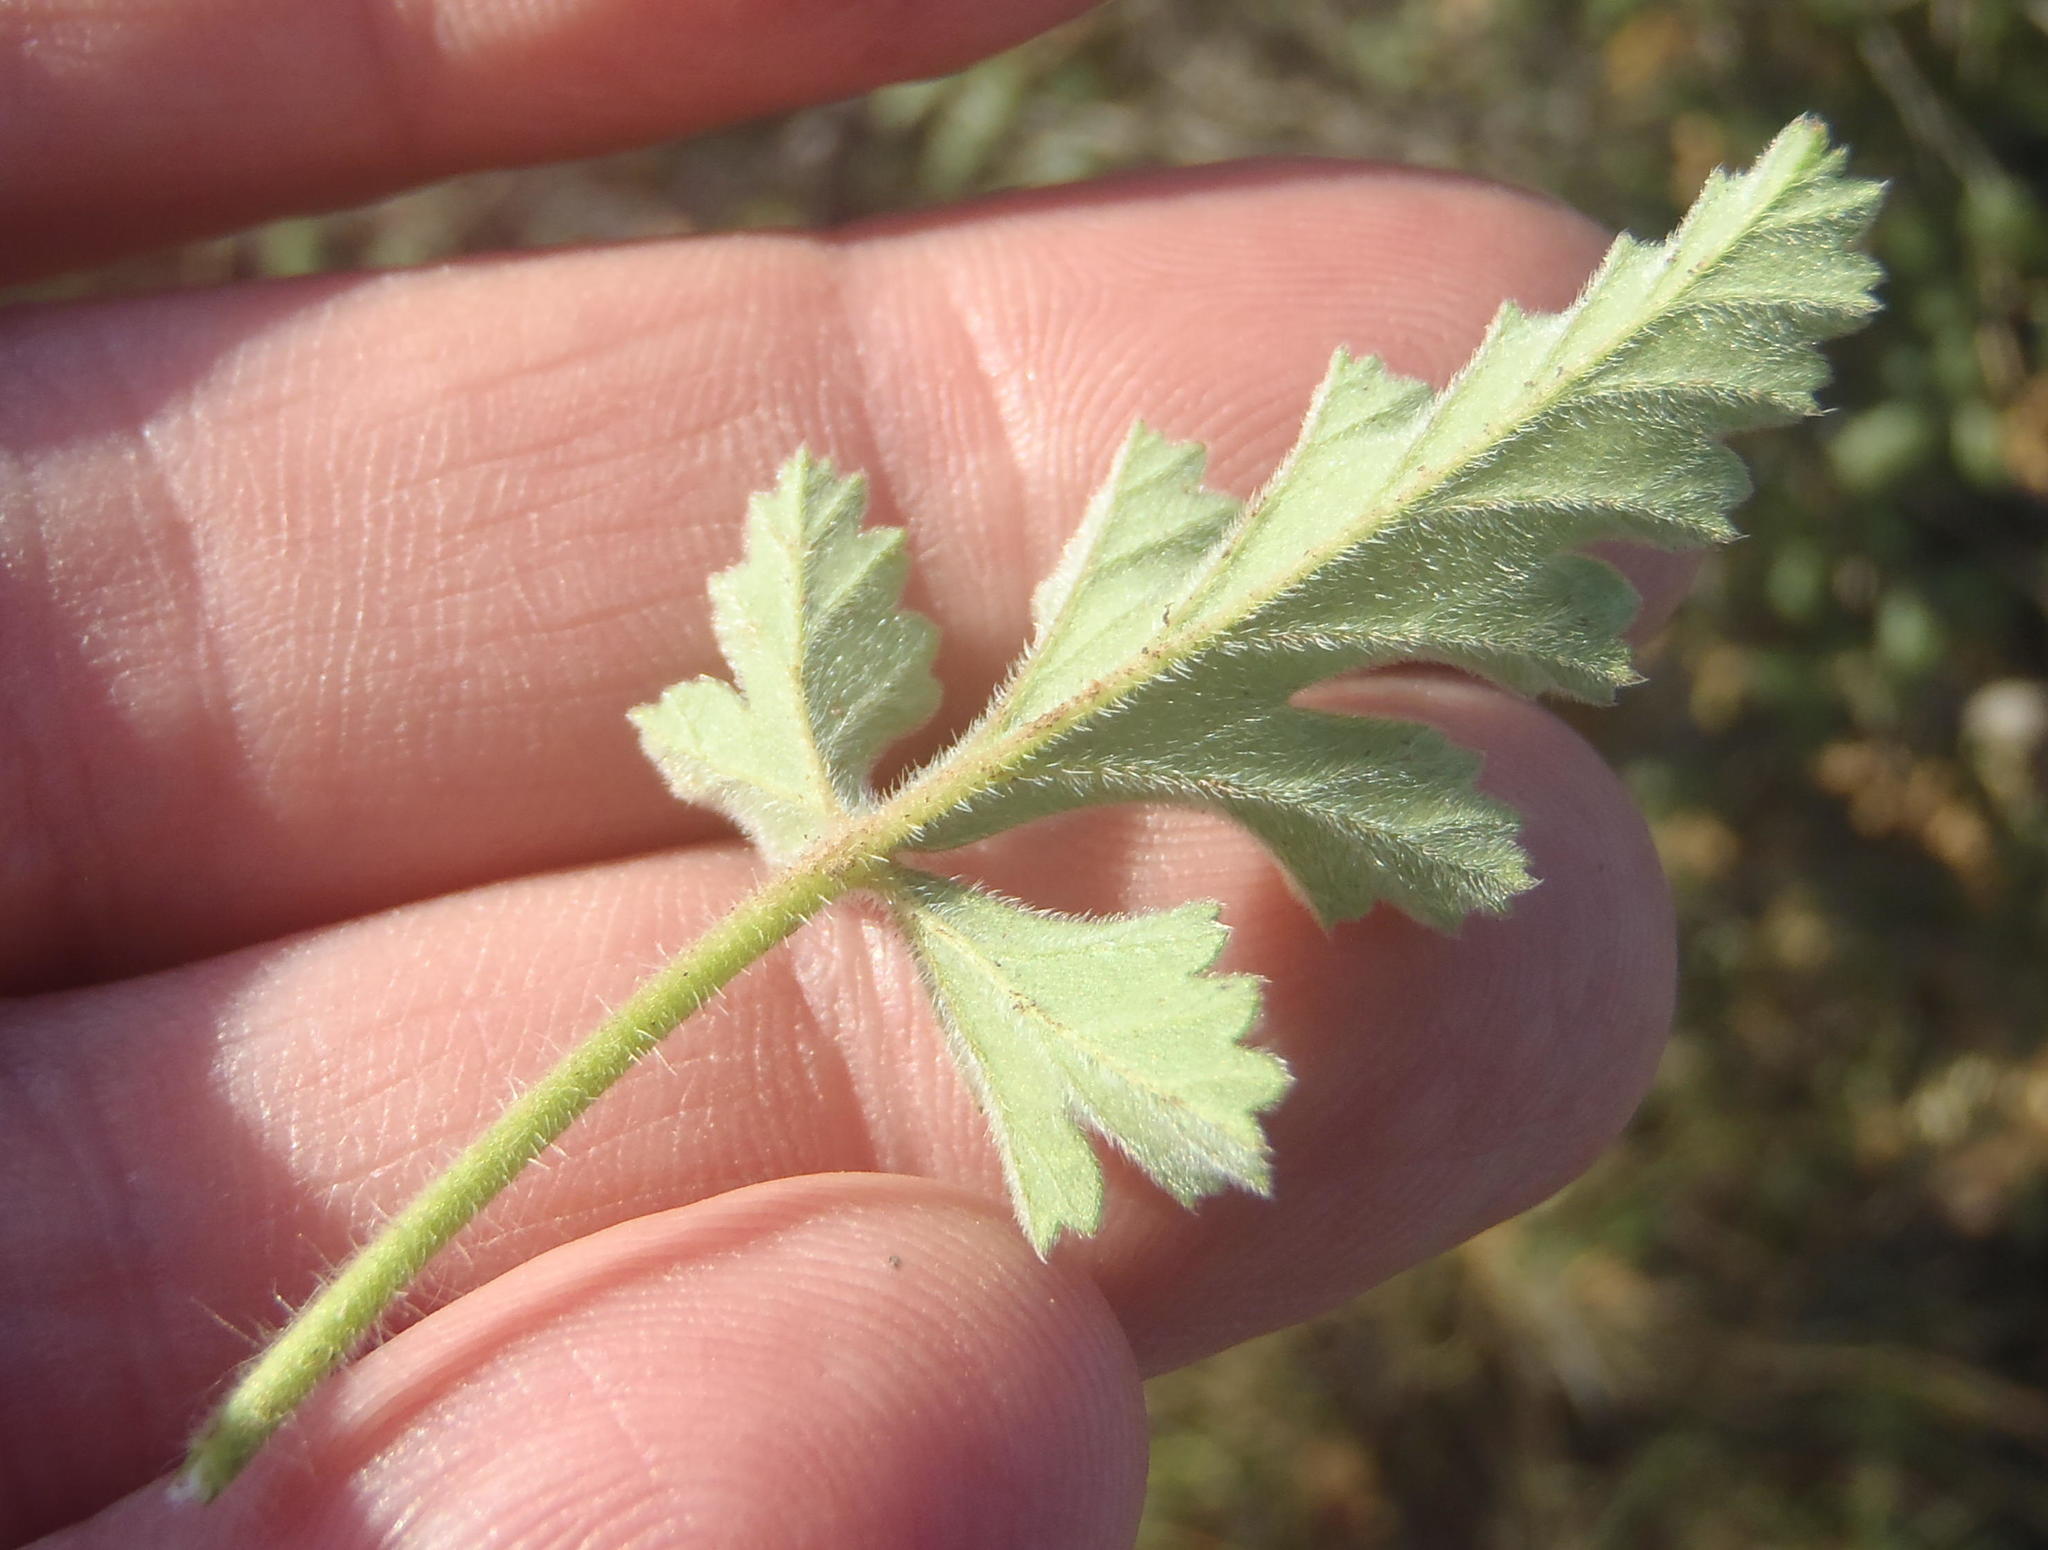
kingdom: Plantae
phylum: Tracheophyta
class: Magnoliopsida
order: Geraniales
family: Geraniaceae
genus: Pelargonium
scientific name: Pelargonium candicans
